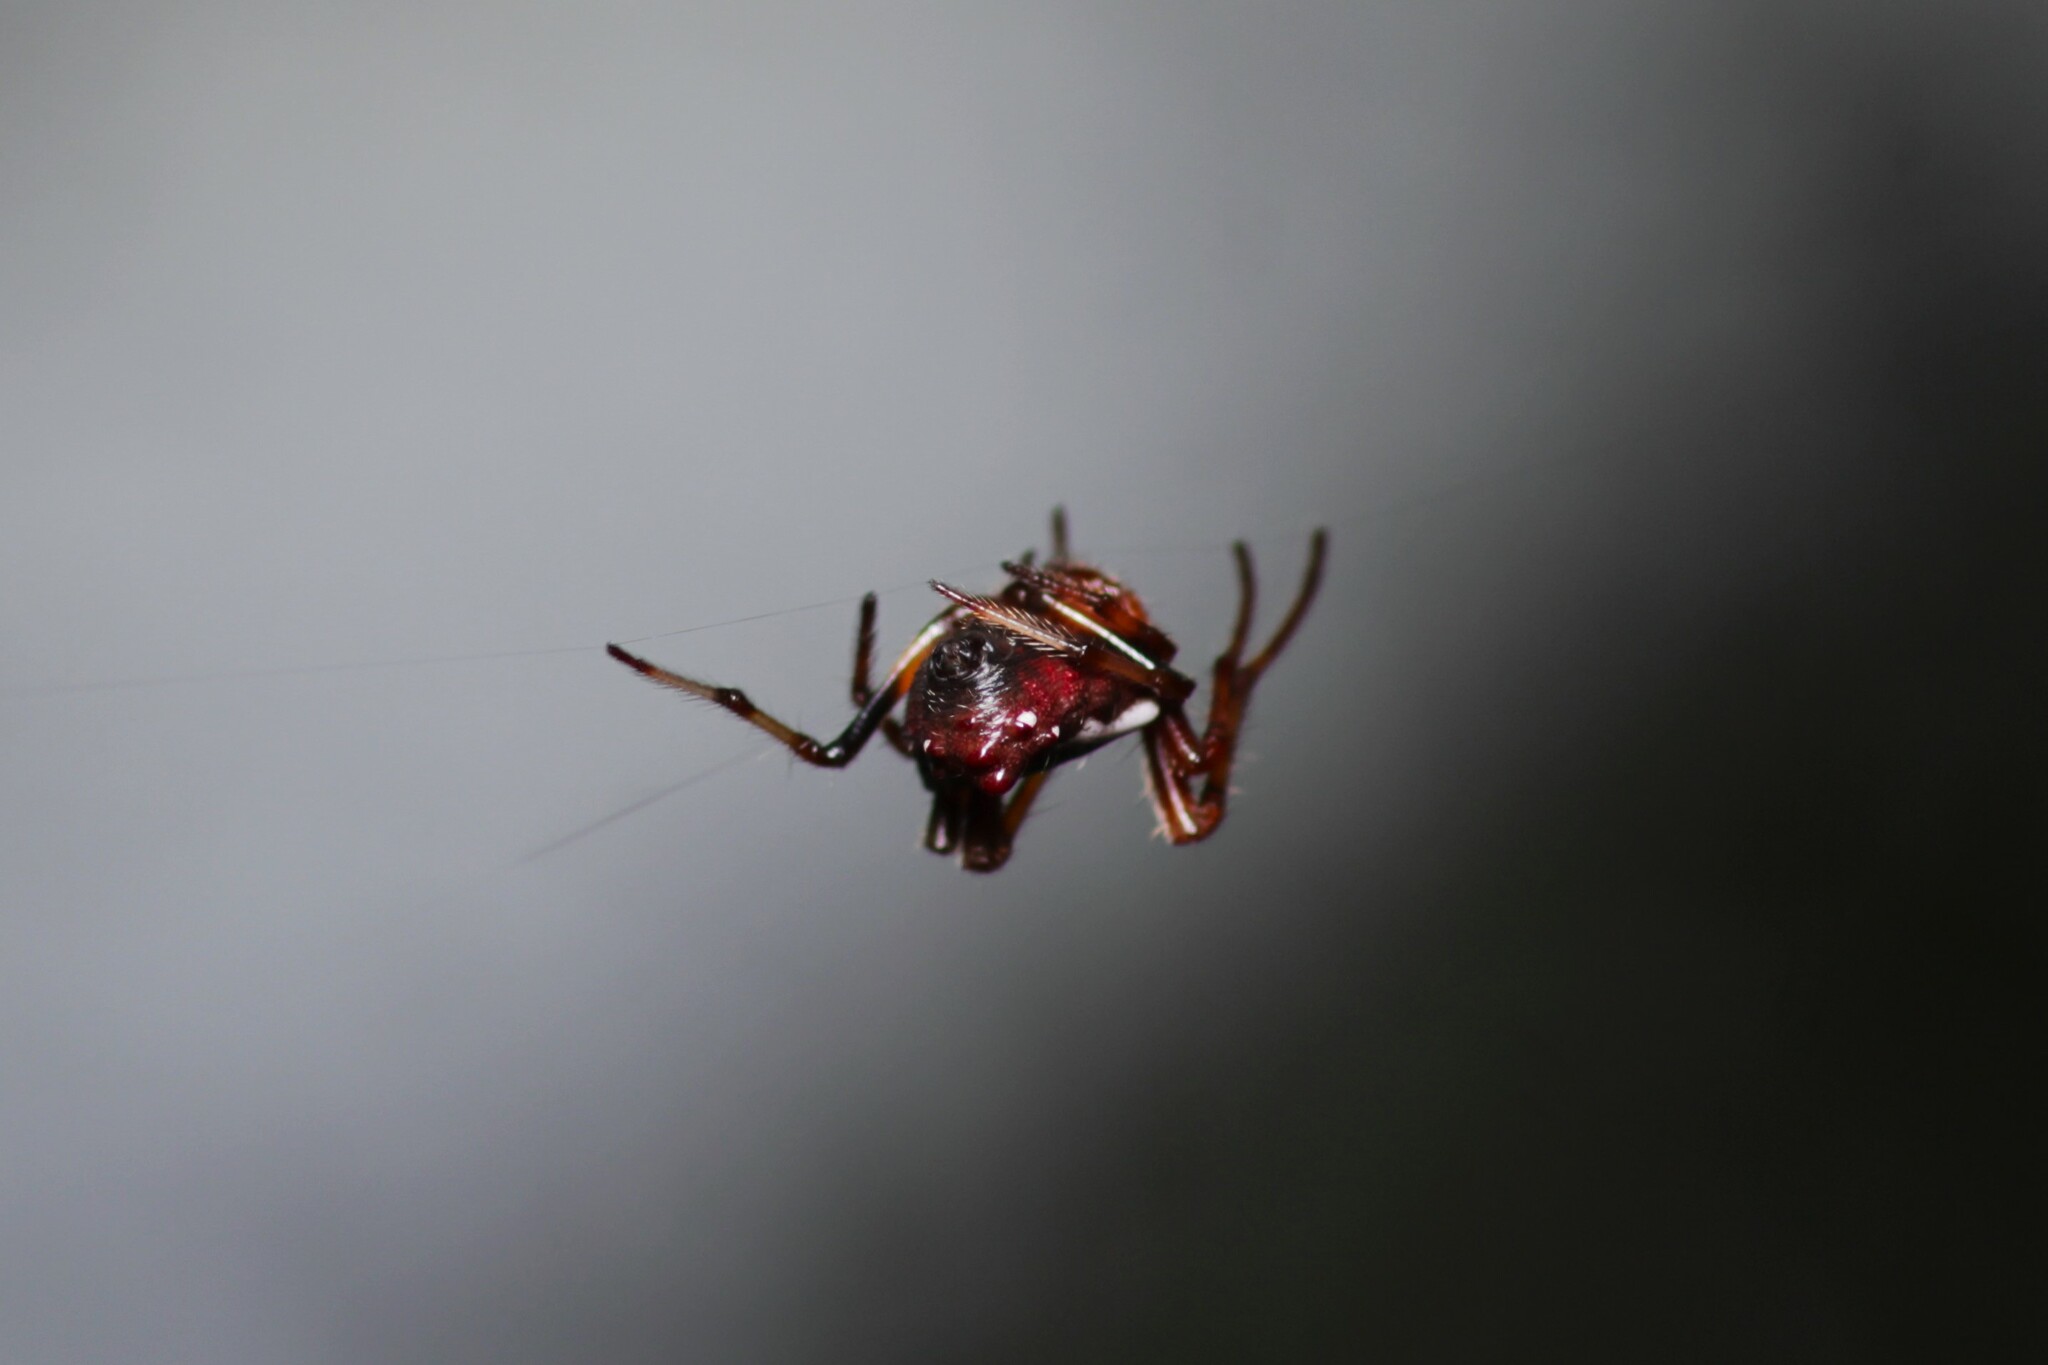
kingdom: Animalia
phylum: Arthropoda
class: Arachnida
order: Araneae
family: Araneidae
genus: Verrucosa
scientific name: Verrucosa arenata
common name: Orb weavers
